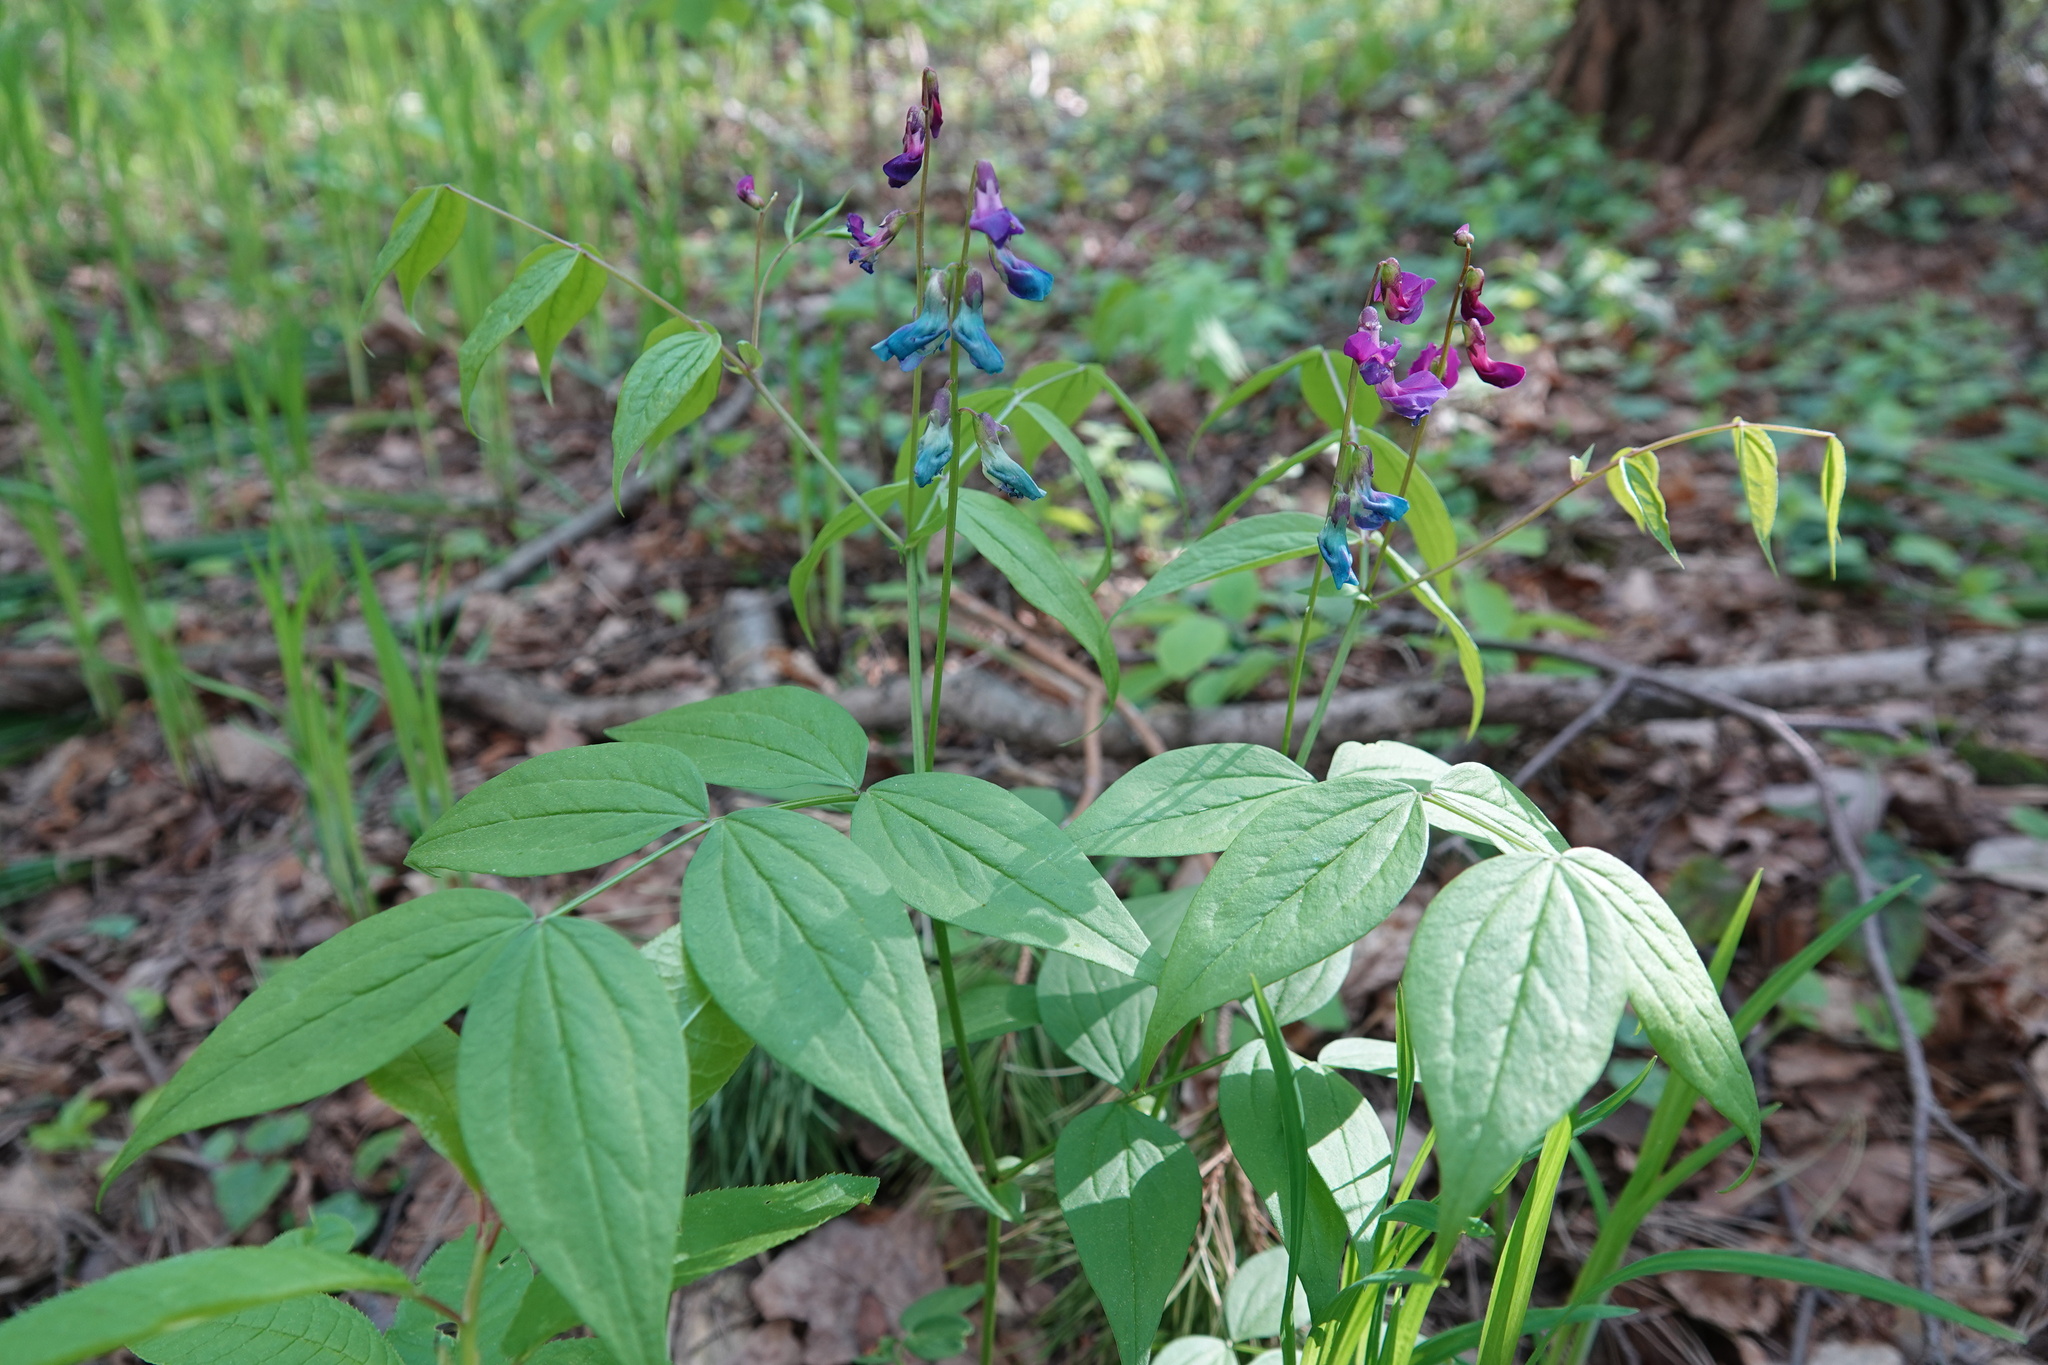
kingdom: Plantae
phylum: Tracheophyta
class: Magnoliopsida
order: Fabales
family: Fabaceae
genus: Lathyrus
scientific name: Lathyrus vernus
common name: Spring pea
